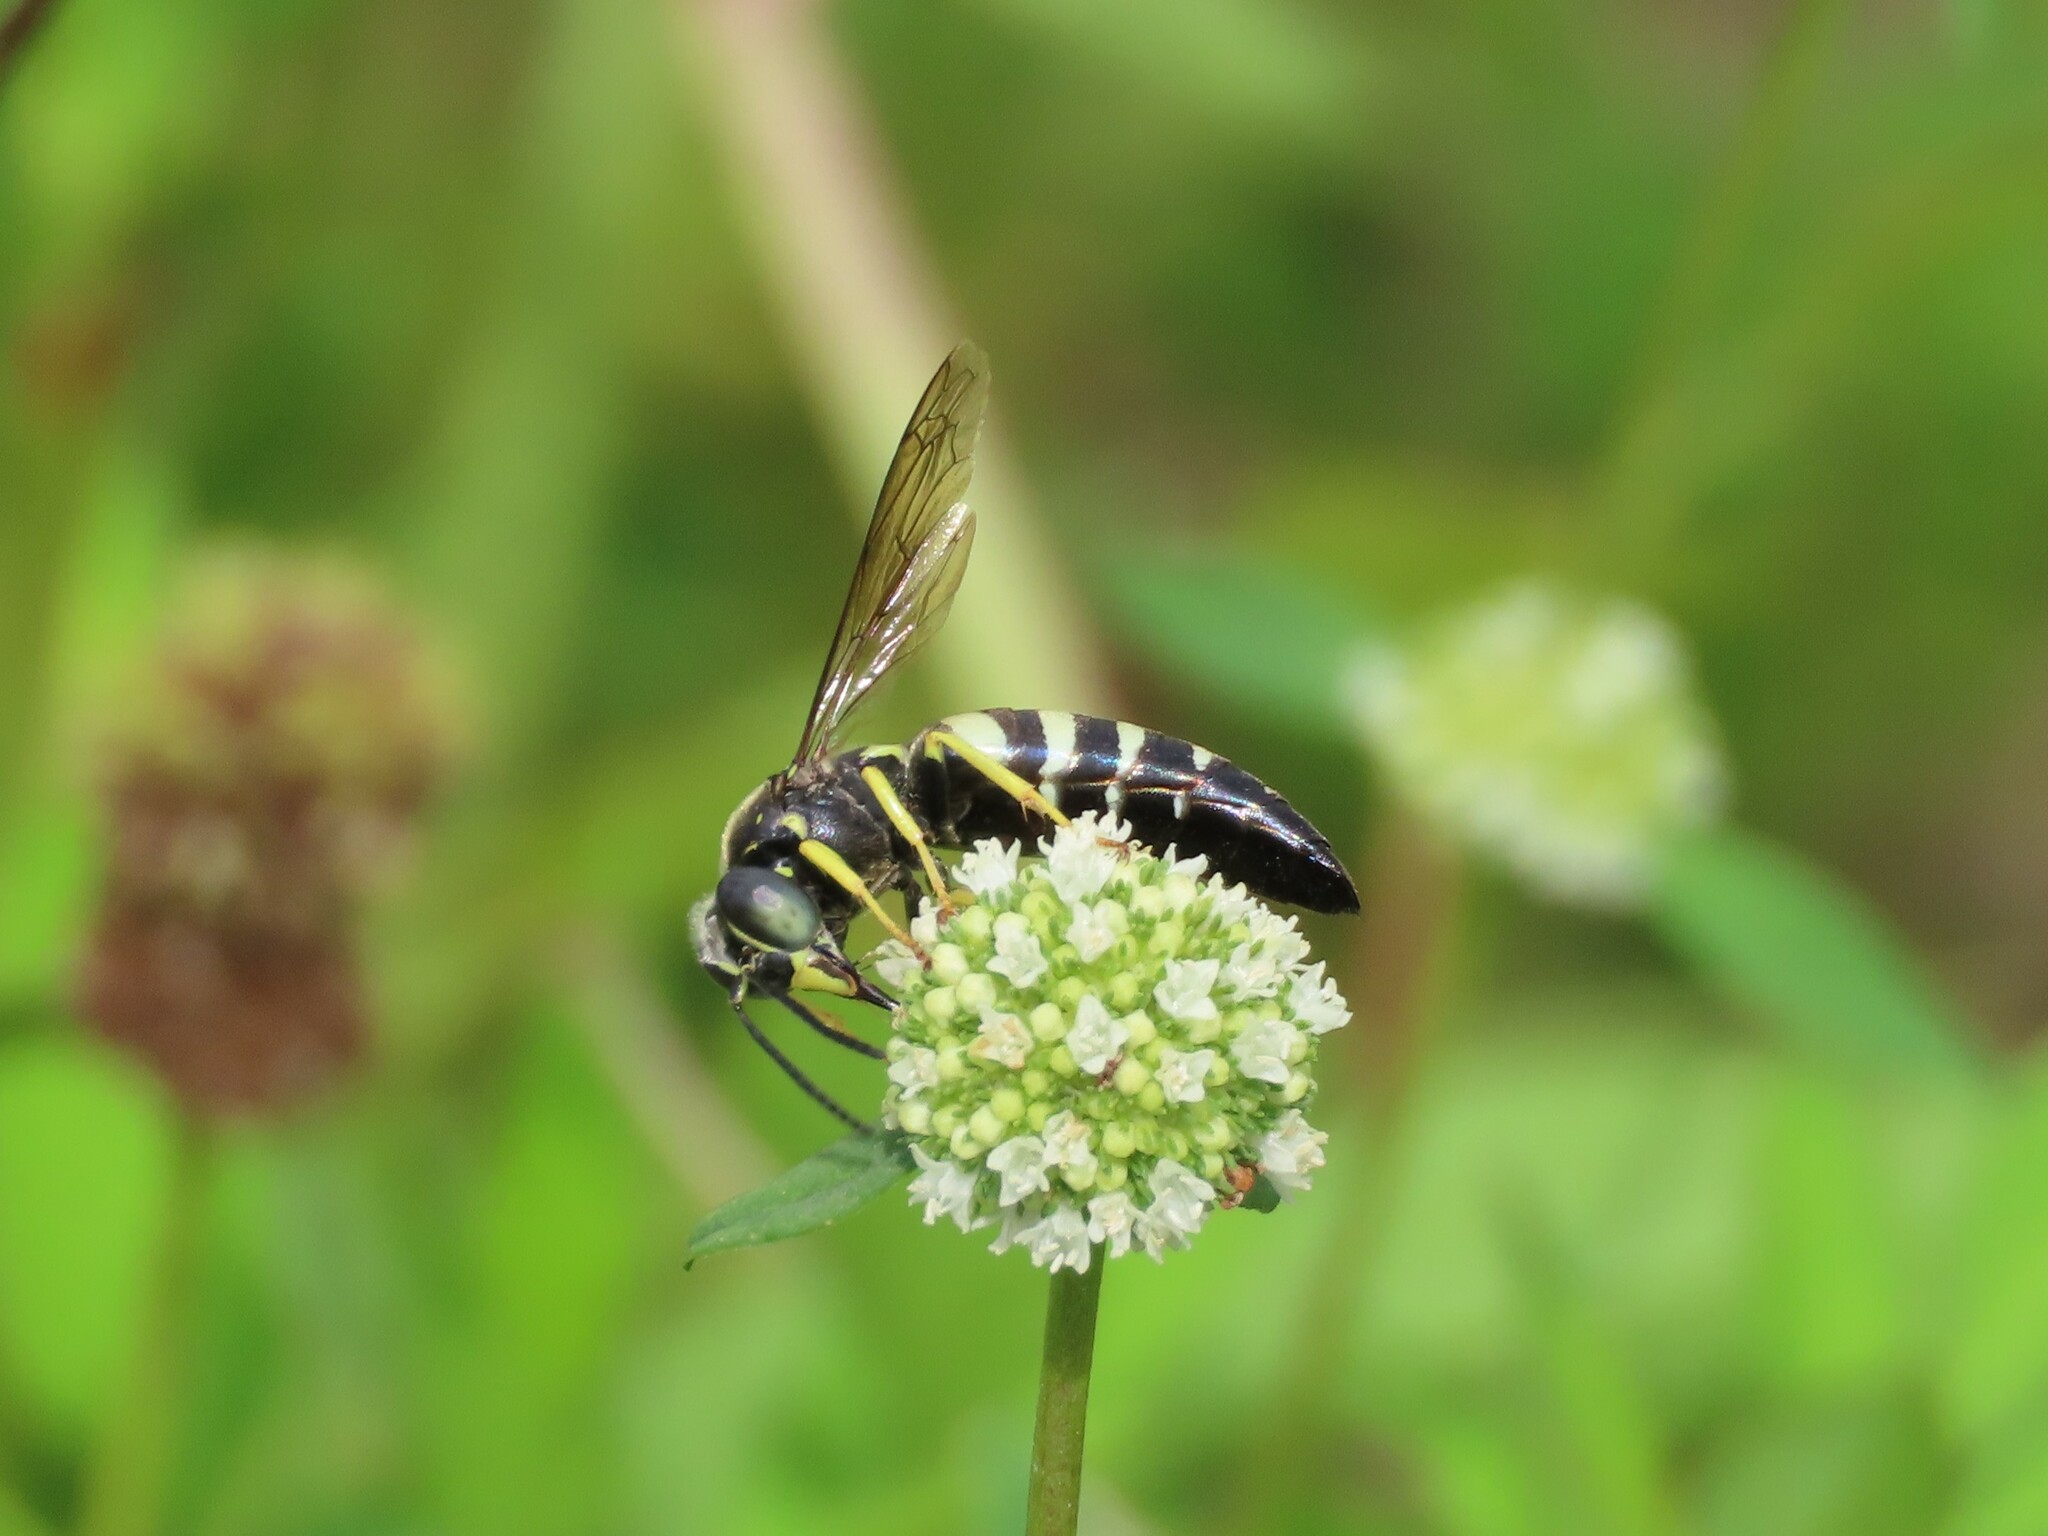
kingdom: Animalia
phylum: Arthropoda
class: Insecta
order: Hymenoptera
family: Crabronidae
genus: Bicyrtes
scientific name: Bicyrtes quadrifasciatus
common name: Four-banded stink bug hunter wasp
